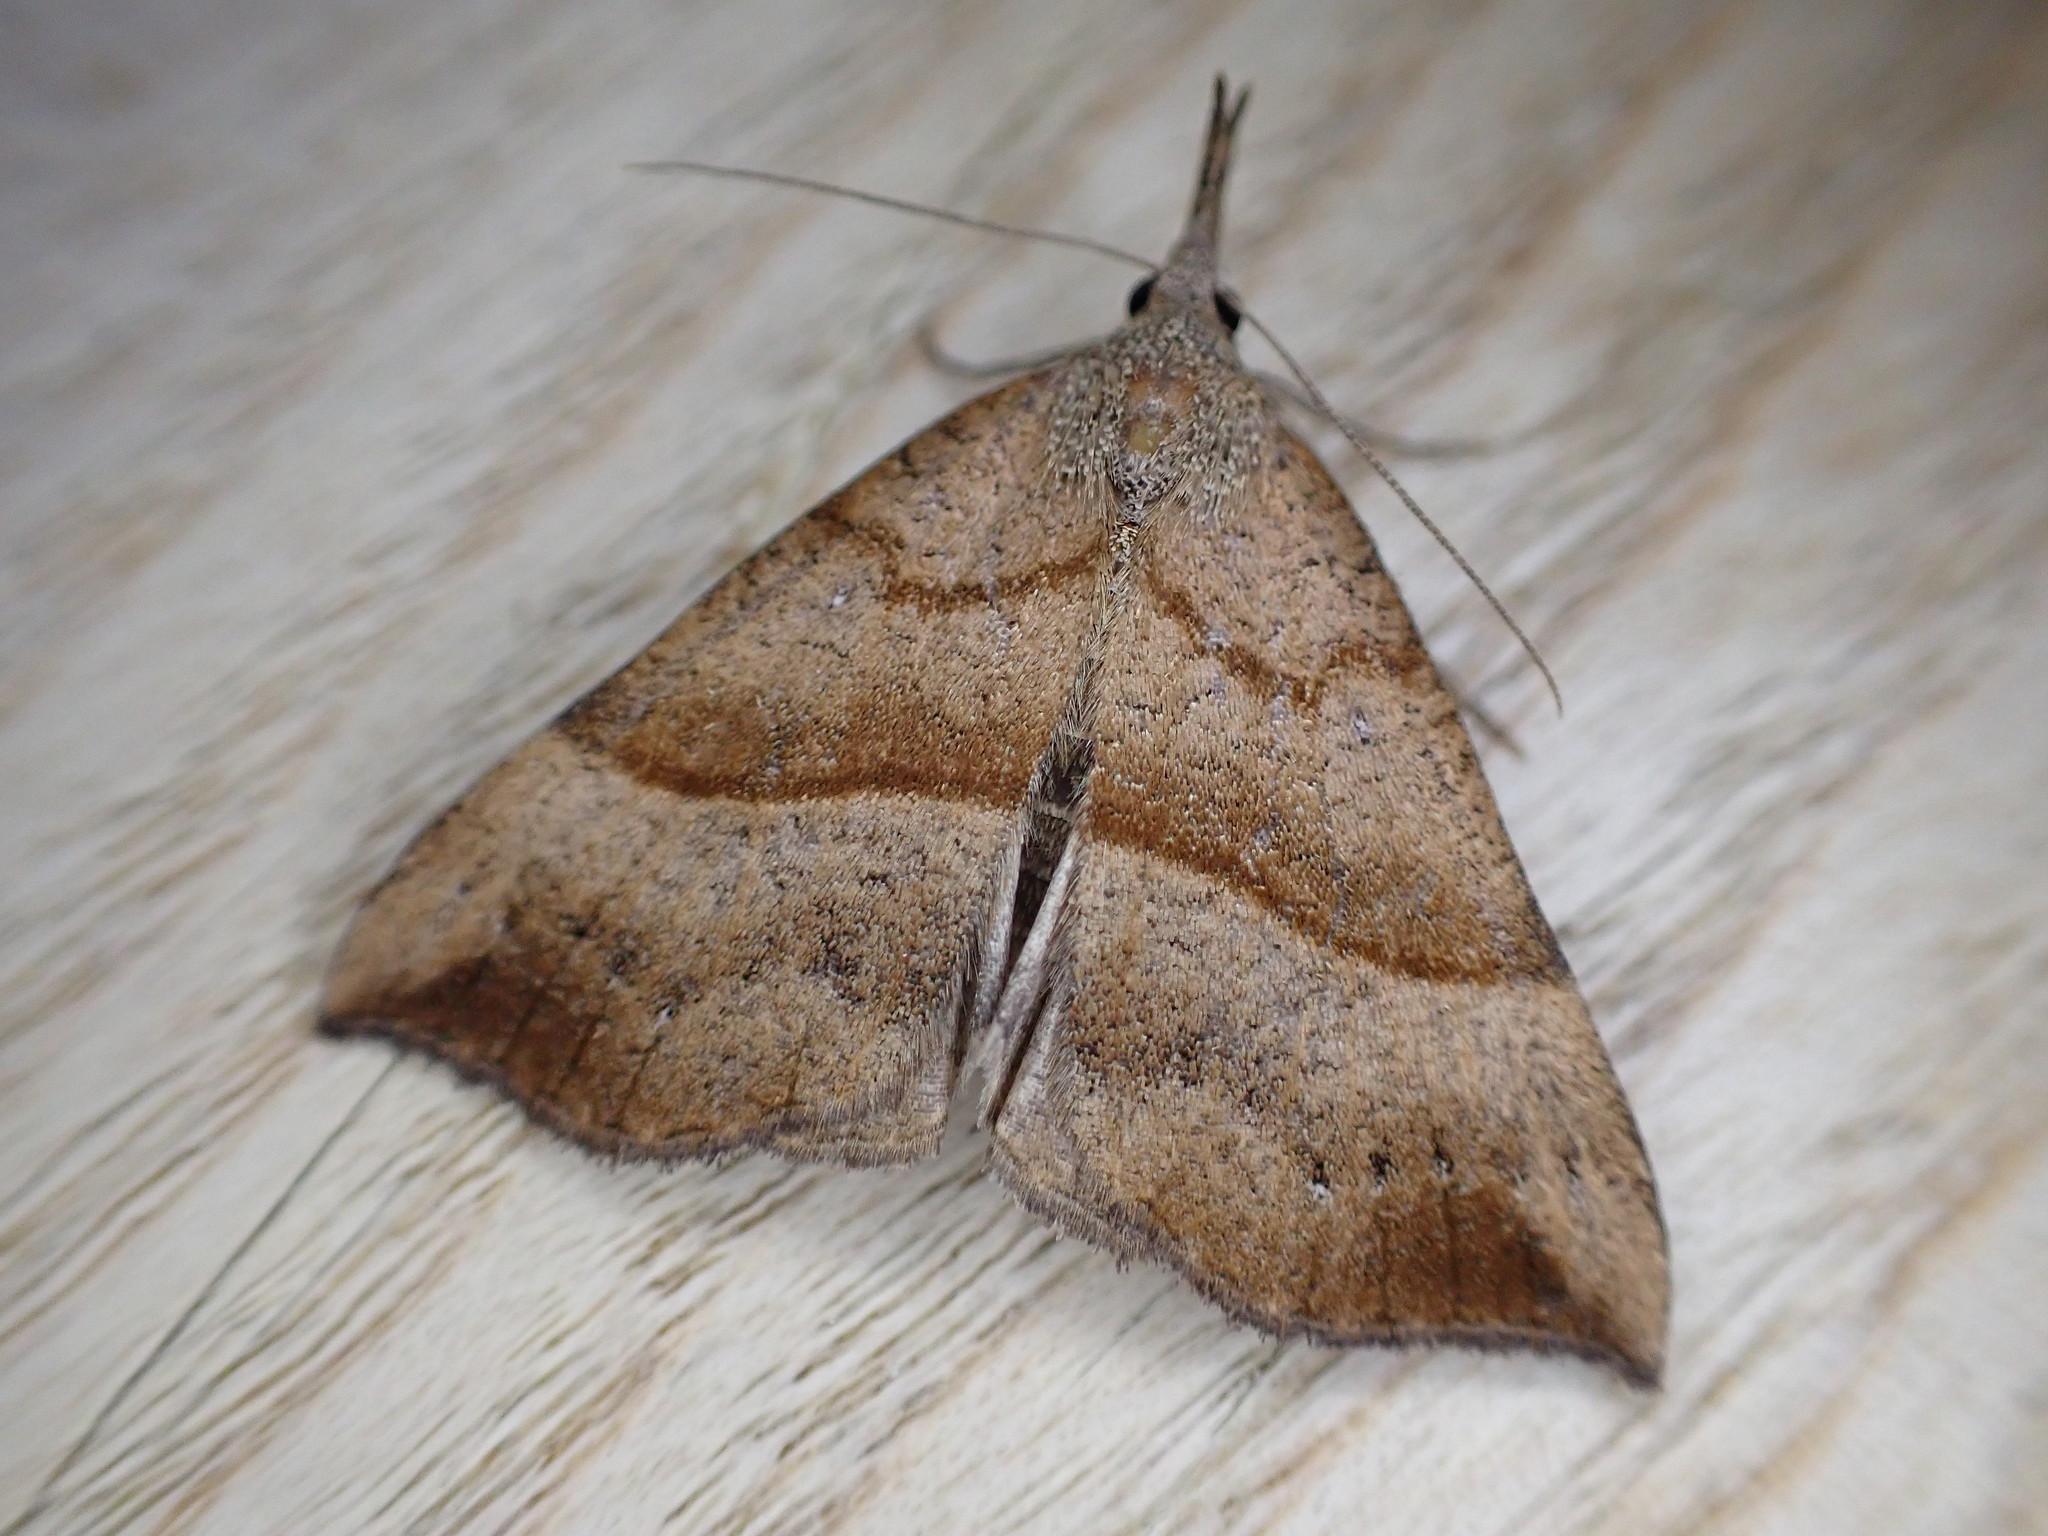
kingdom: Animalia
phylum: Arthropoda
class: Insecta
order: Lepidoptera
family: Erebidae
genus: Hypena
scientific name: Hypena proboscidalis
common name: Snout
